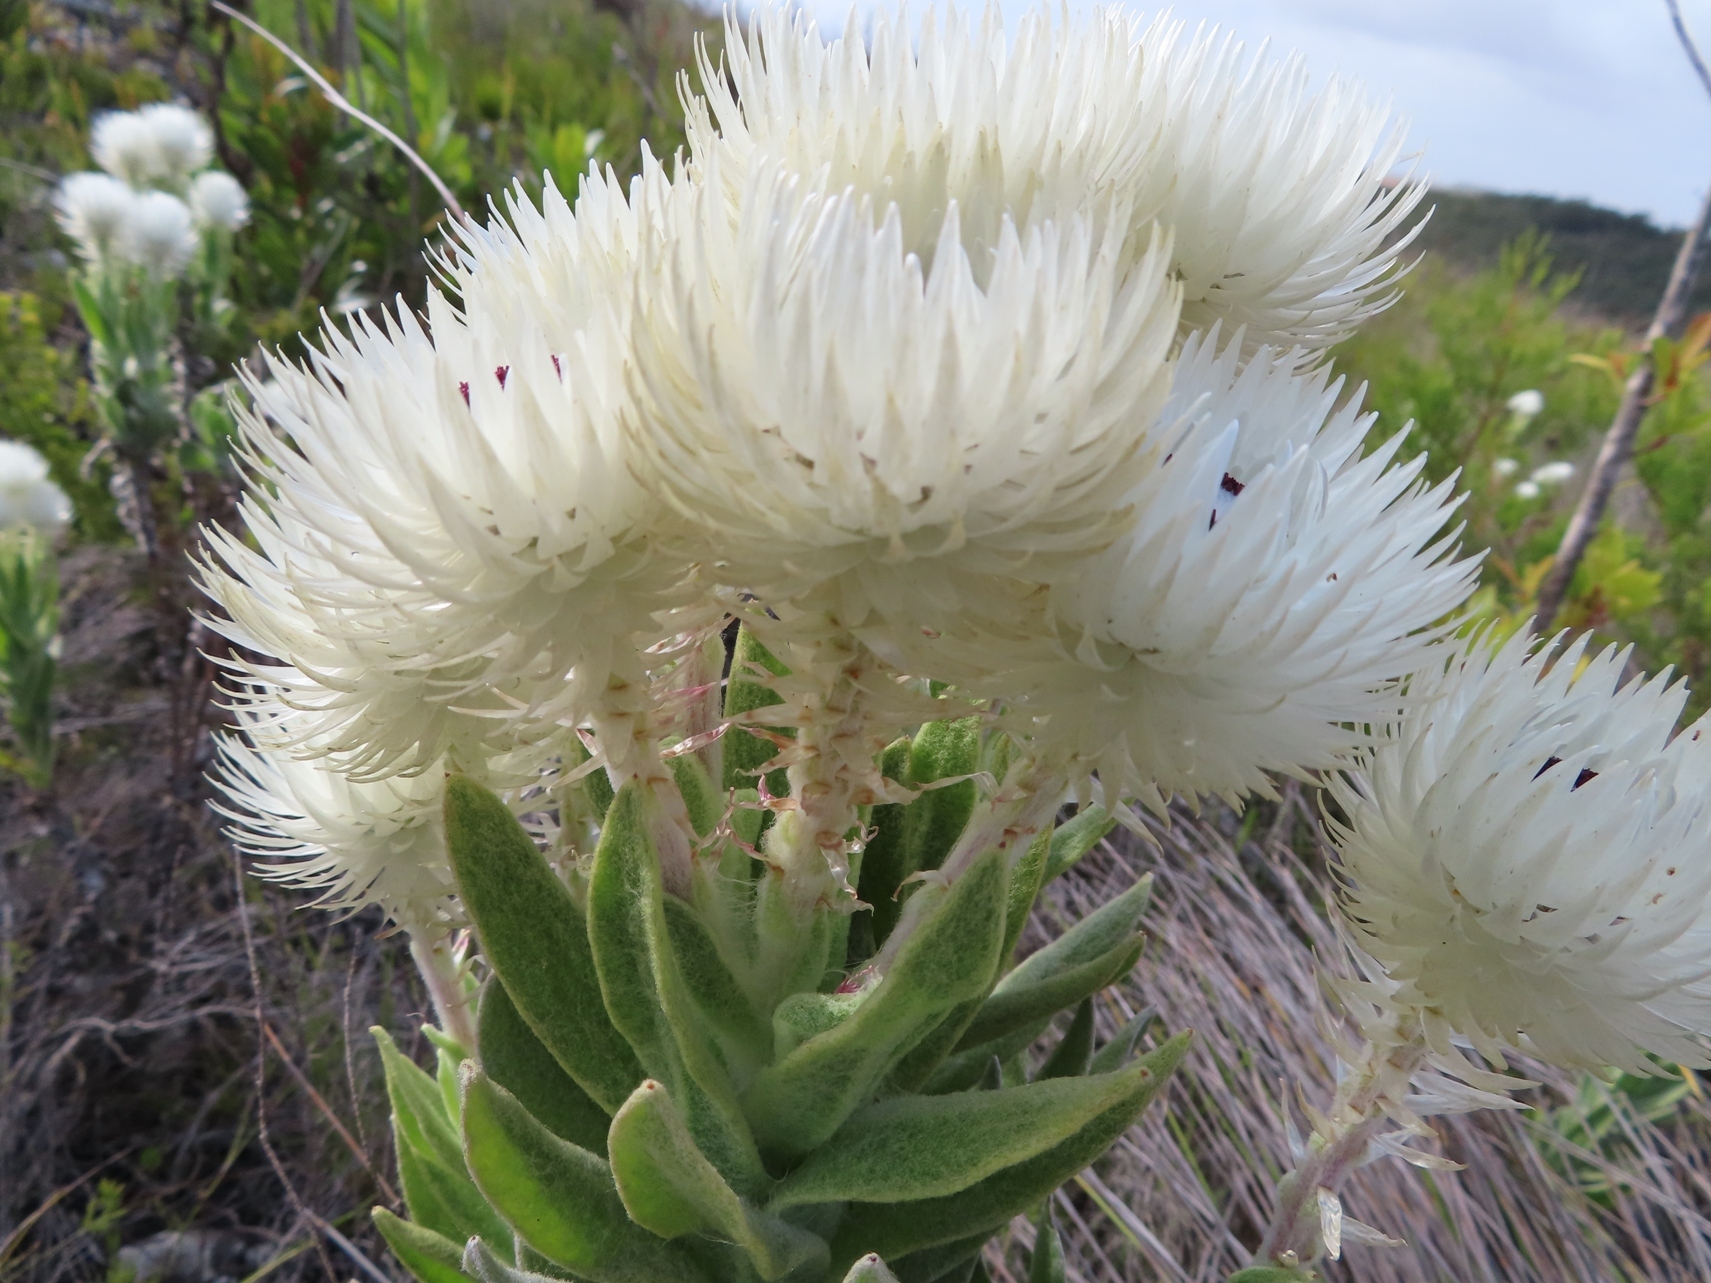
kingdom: Plantae
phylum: Tracheophyta
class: Magnoliopsida
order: Asterales
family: Asteraceae
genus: Syncarpha
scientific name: Syncarpha vestita
